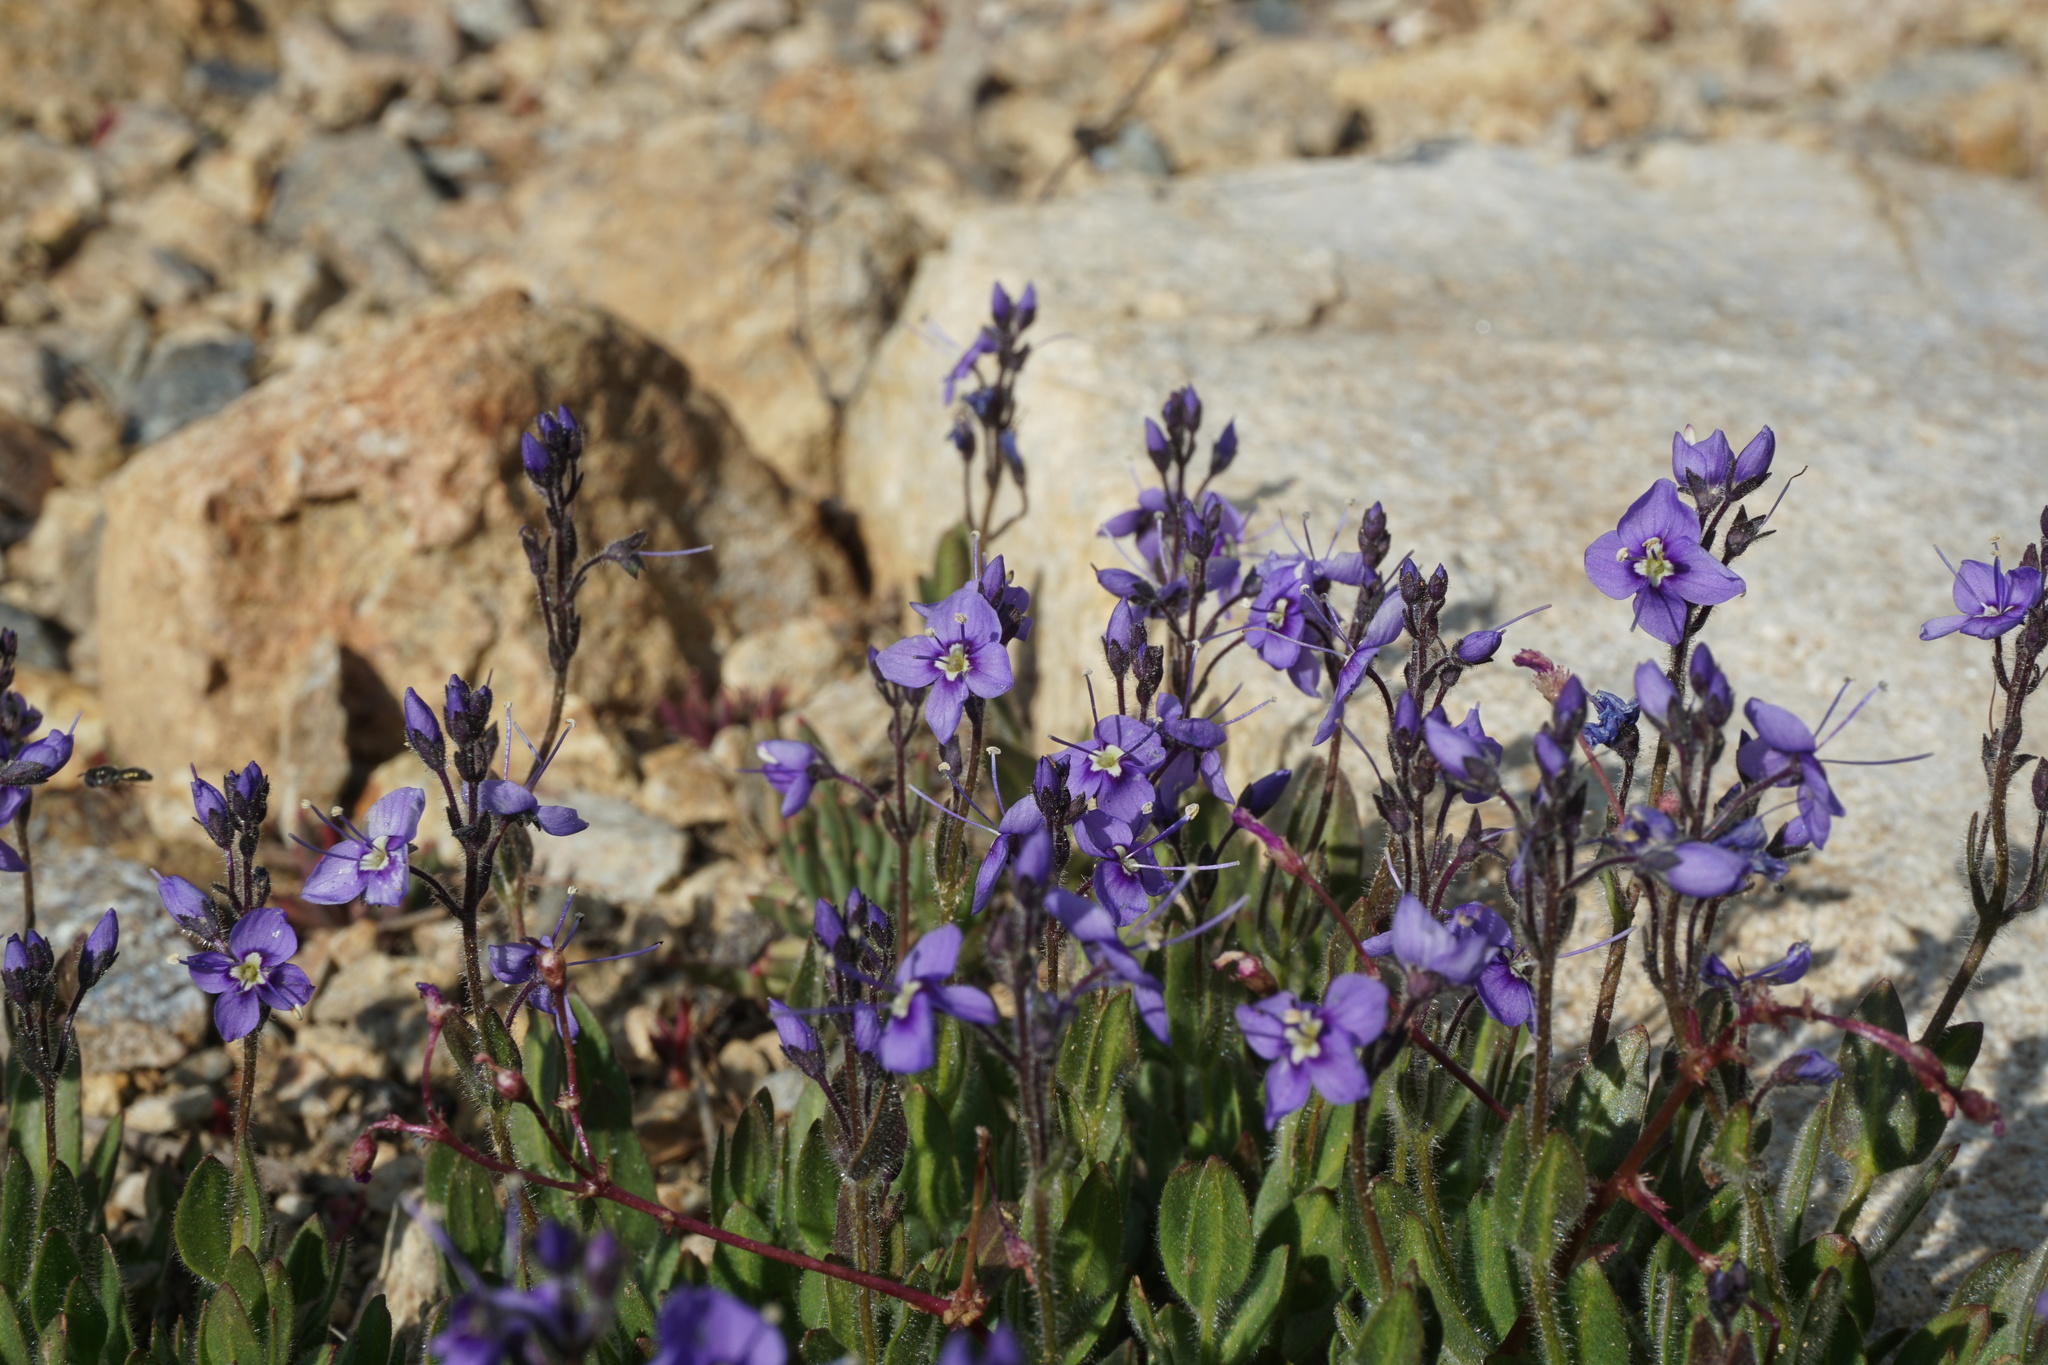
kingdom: Plantae
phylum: Tracheophyta
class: Magnoliopsida
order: Lamiales
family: Plantaginaceae
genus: Veronica
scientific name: Veronica copelandii
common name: Copeland's speedwell
